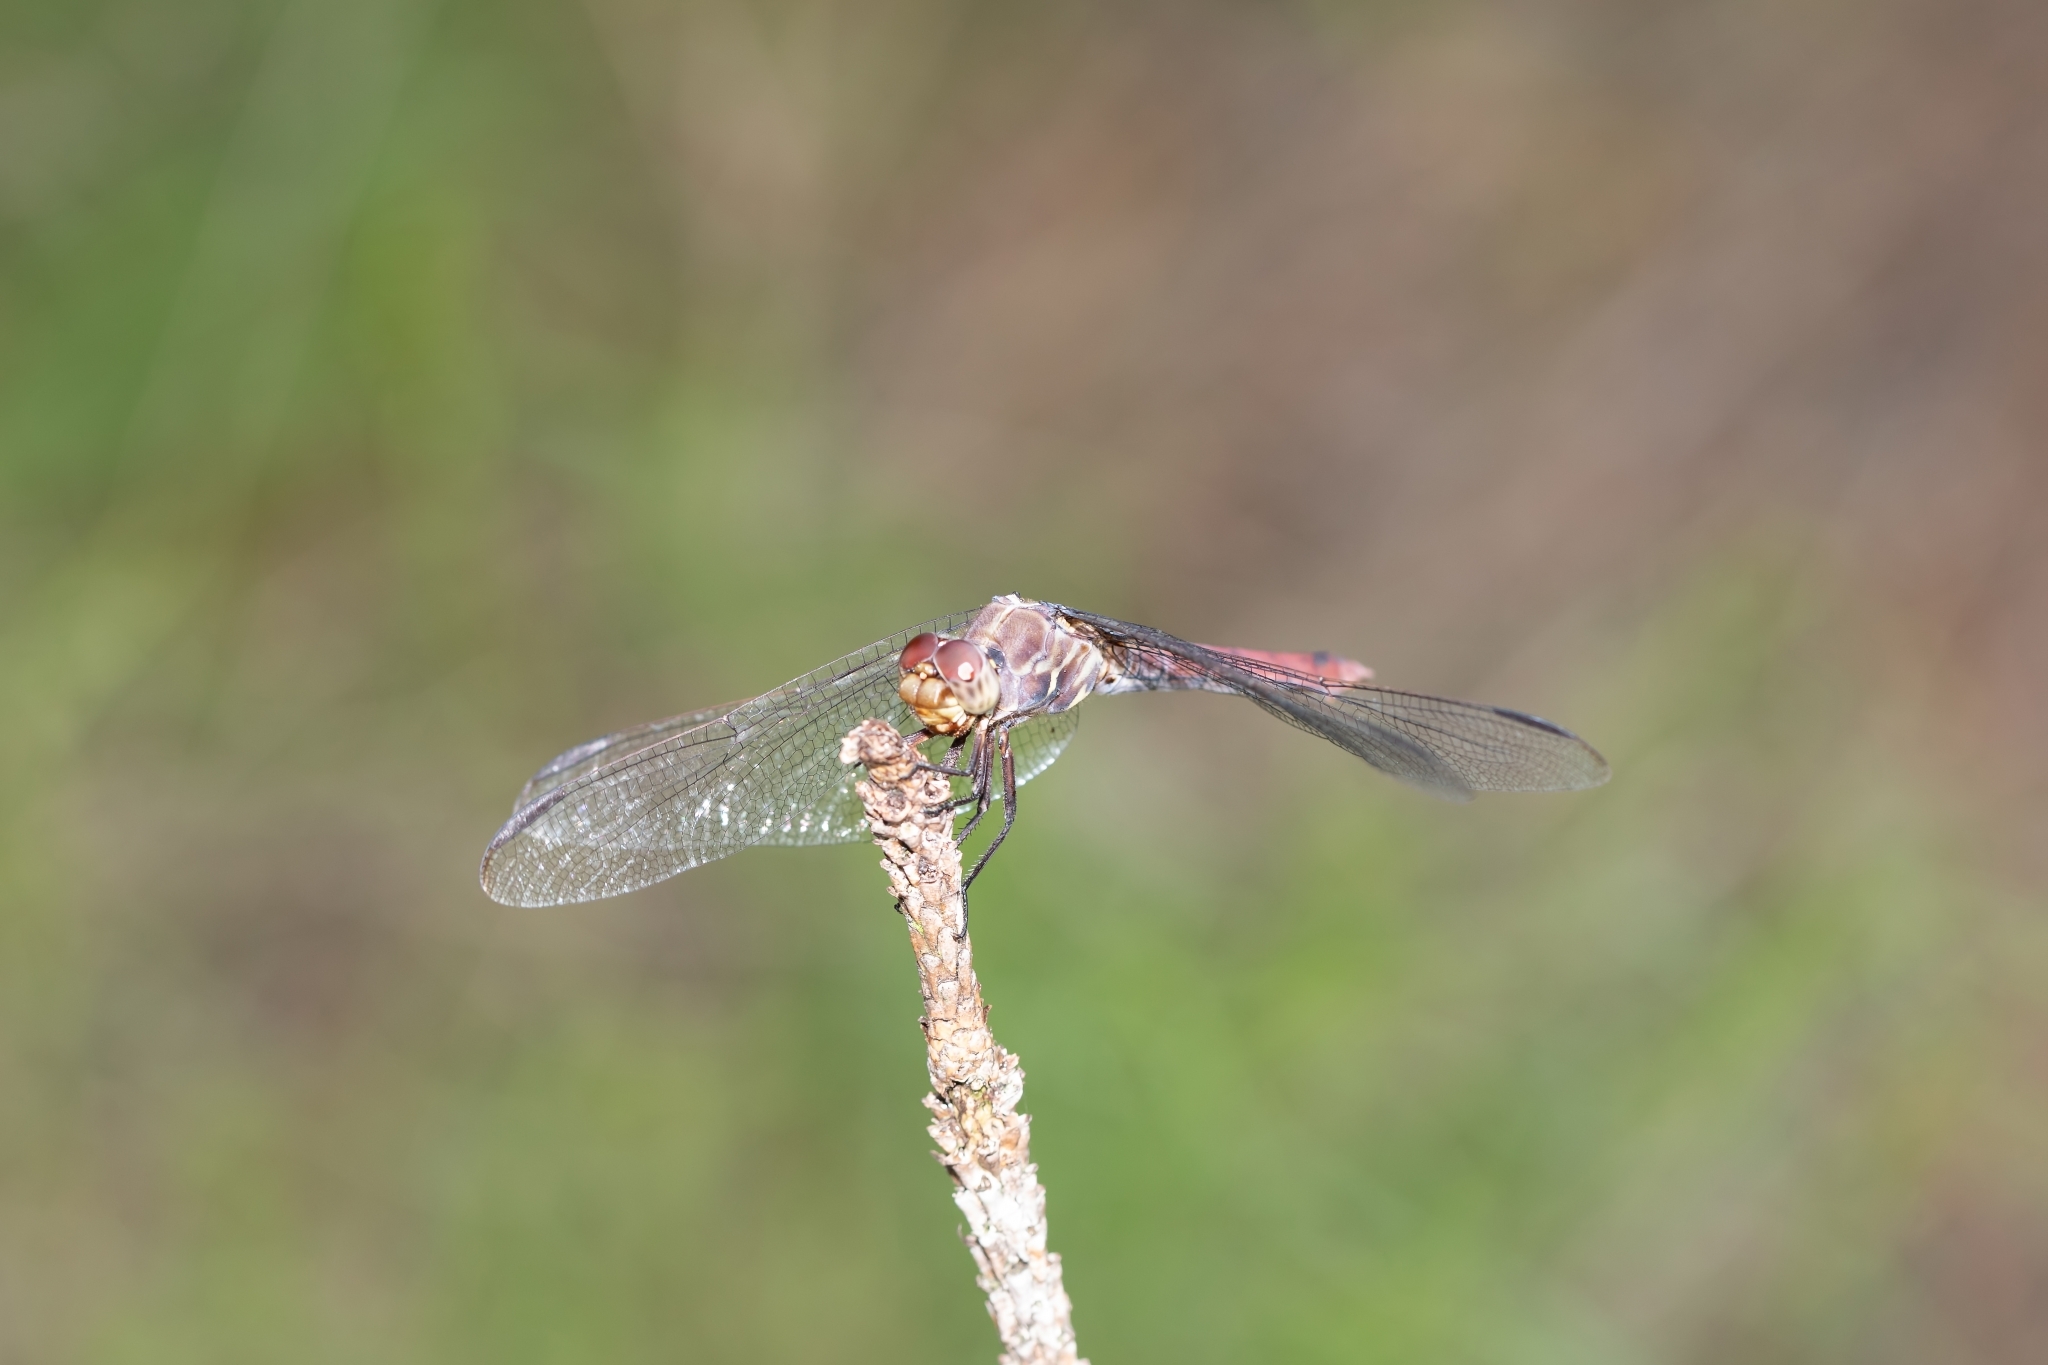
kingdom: Animalia
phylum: Arthropoda
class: Insecta
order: Odonata
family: Libellulidae
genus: Orthemis
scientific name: Orthemis ferruginea
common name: Roseate skimmer
